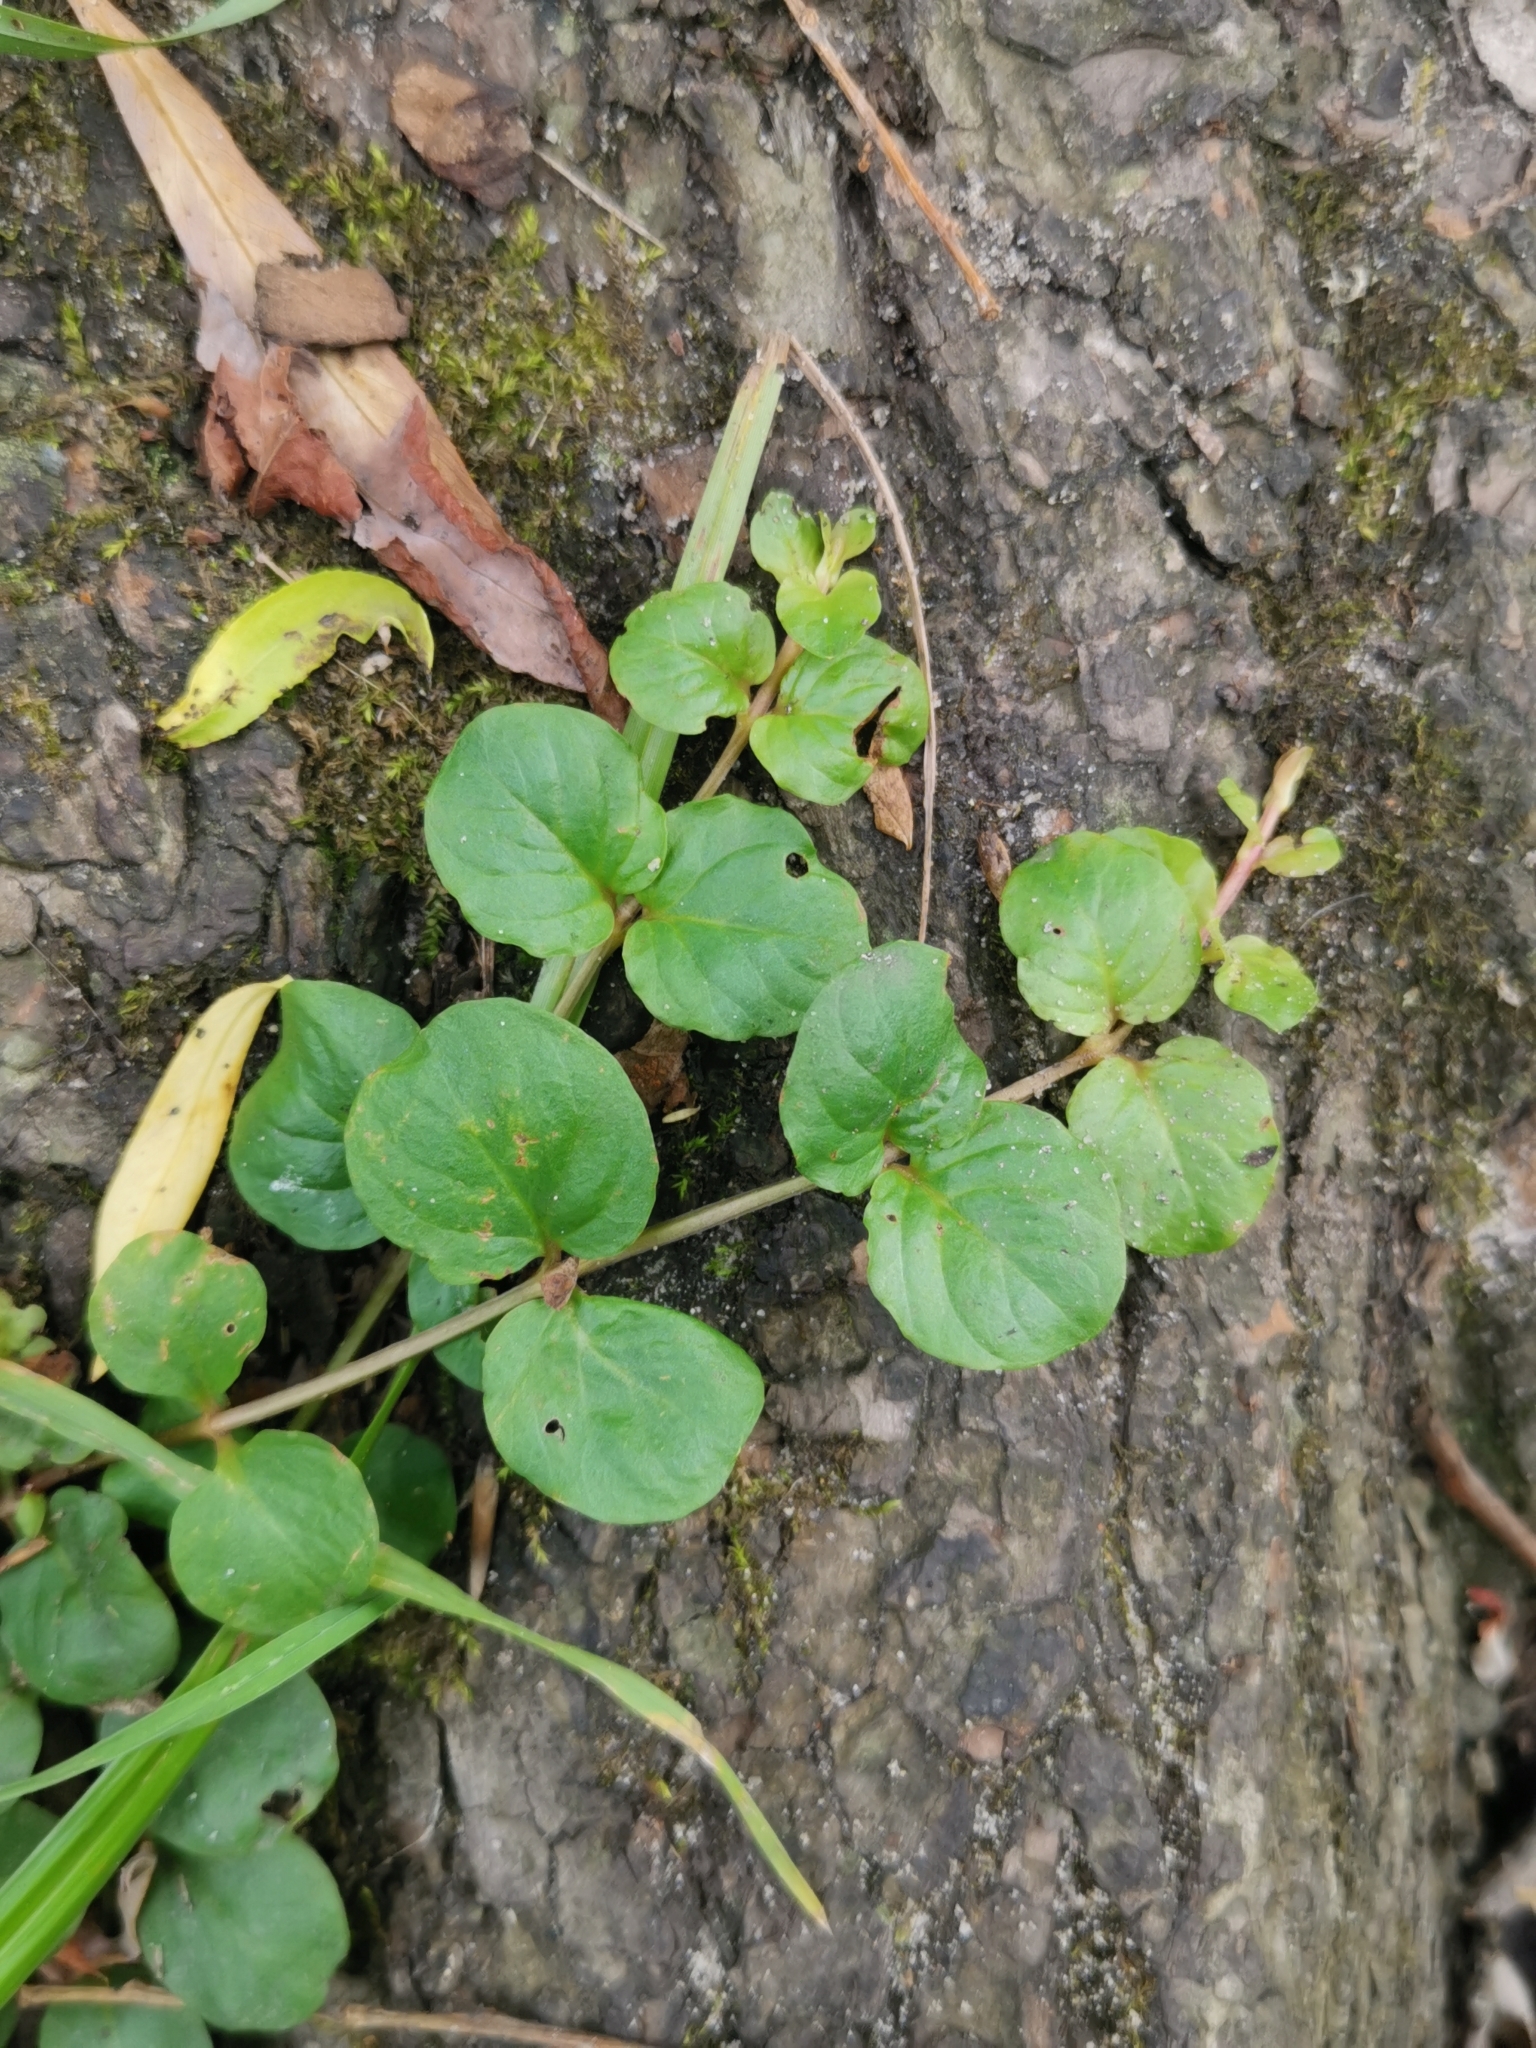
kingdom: Plantae
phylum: Tracheophyta
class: Magnoliopsida
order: Ericales
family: Primulaceae
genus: Lysimachia
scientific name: Lysimachia nummularia
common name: Moneywort
